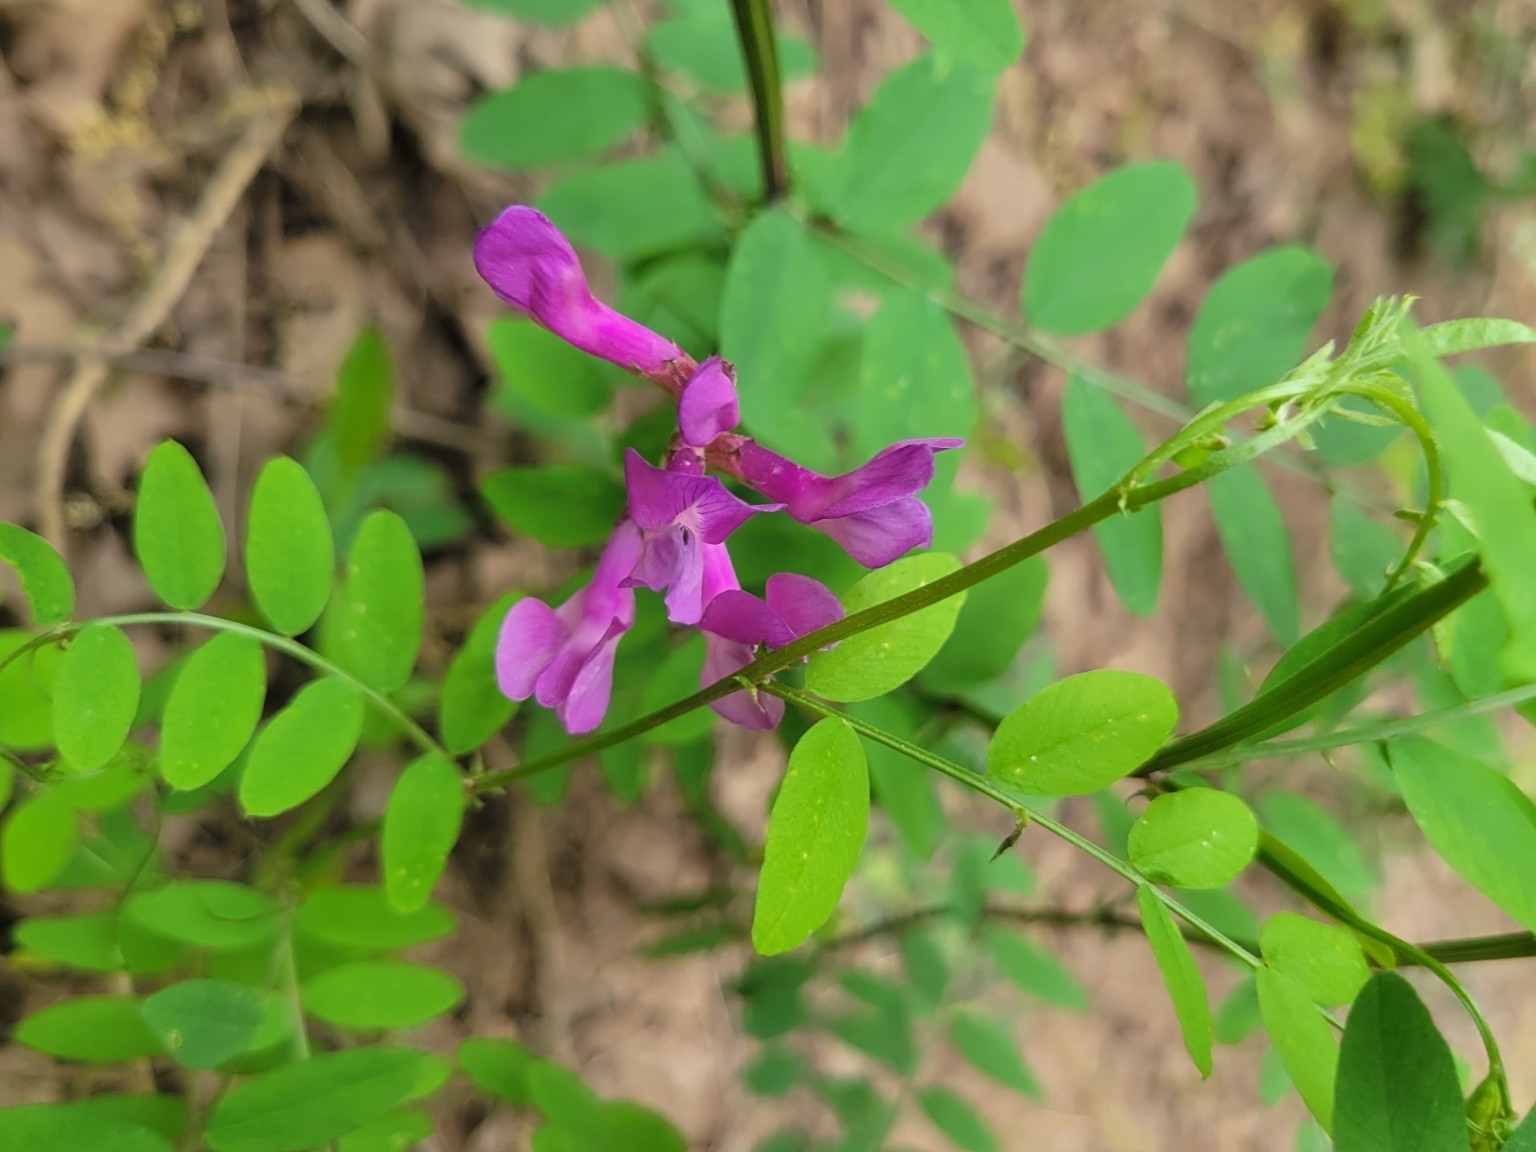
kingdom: Plantae
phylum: Tracheophyta
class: Magnoliopsida
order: Fabales
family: Fabaceae
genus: Vicia
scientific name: Vicia americana
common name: American vetch
